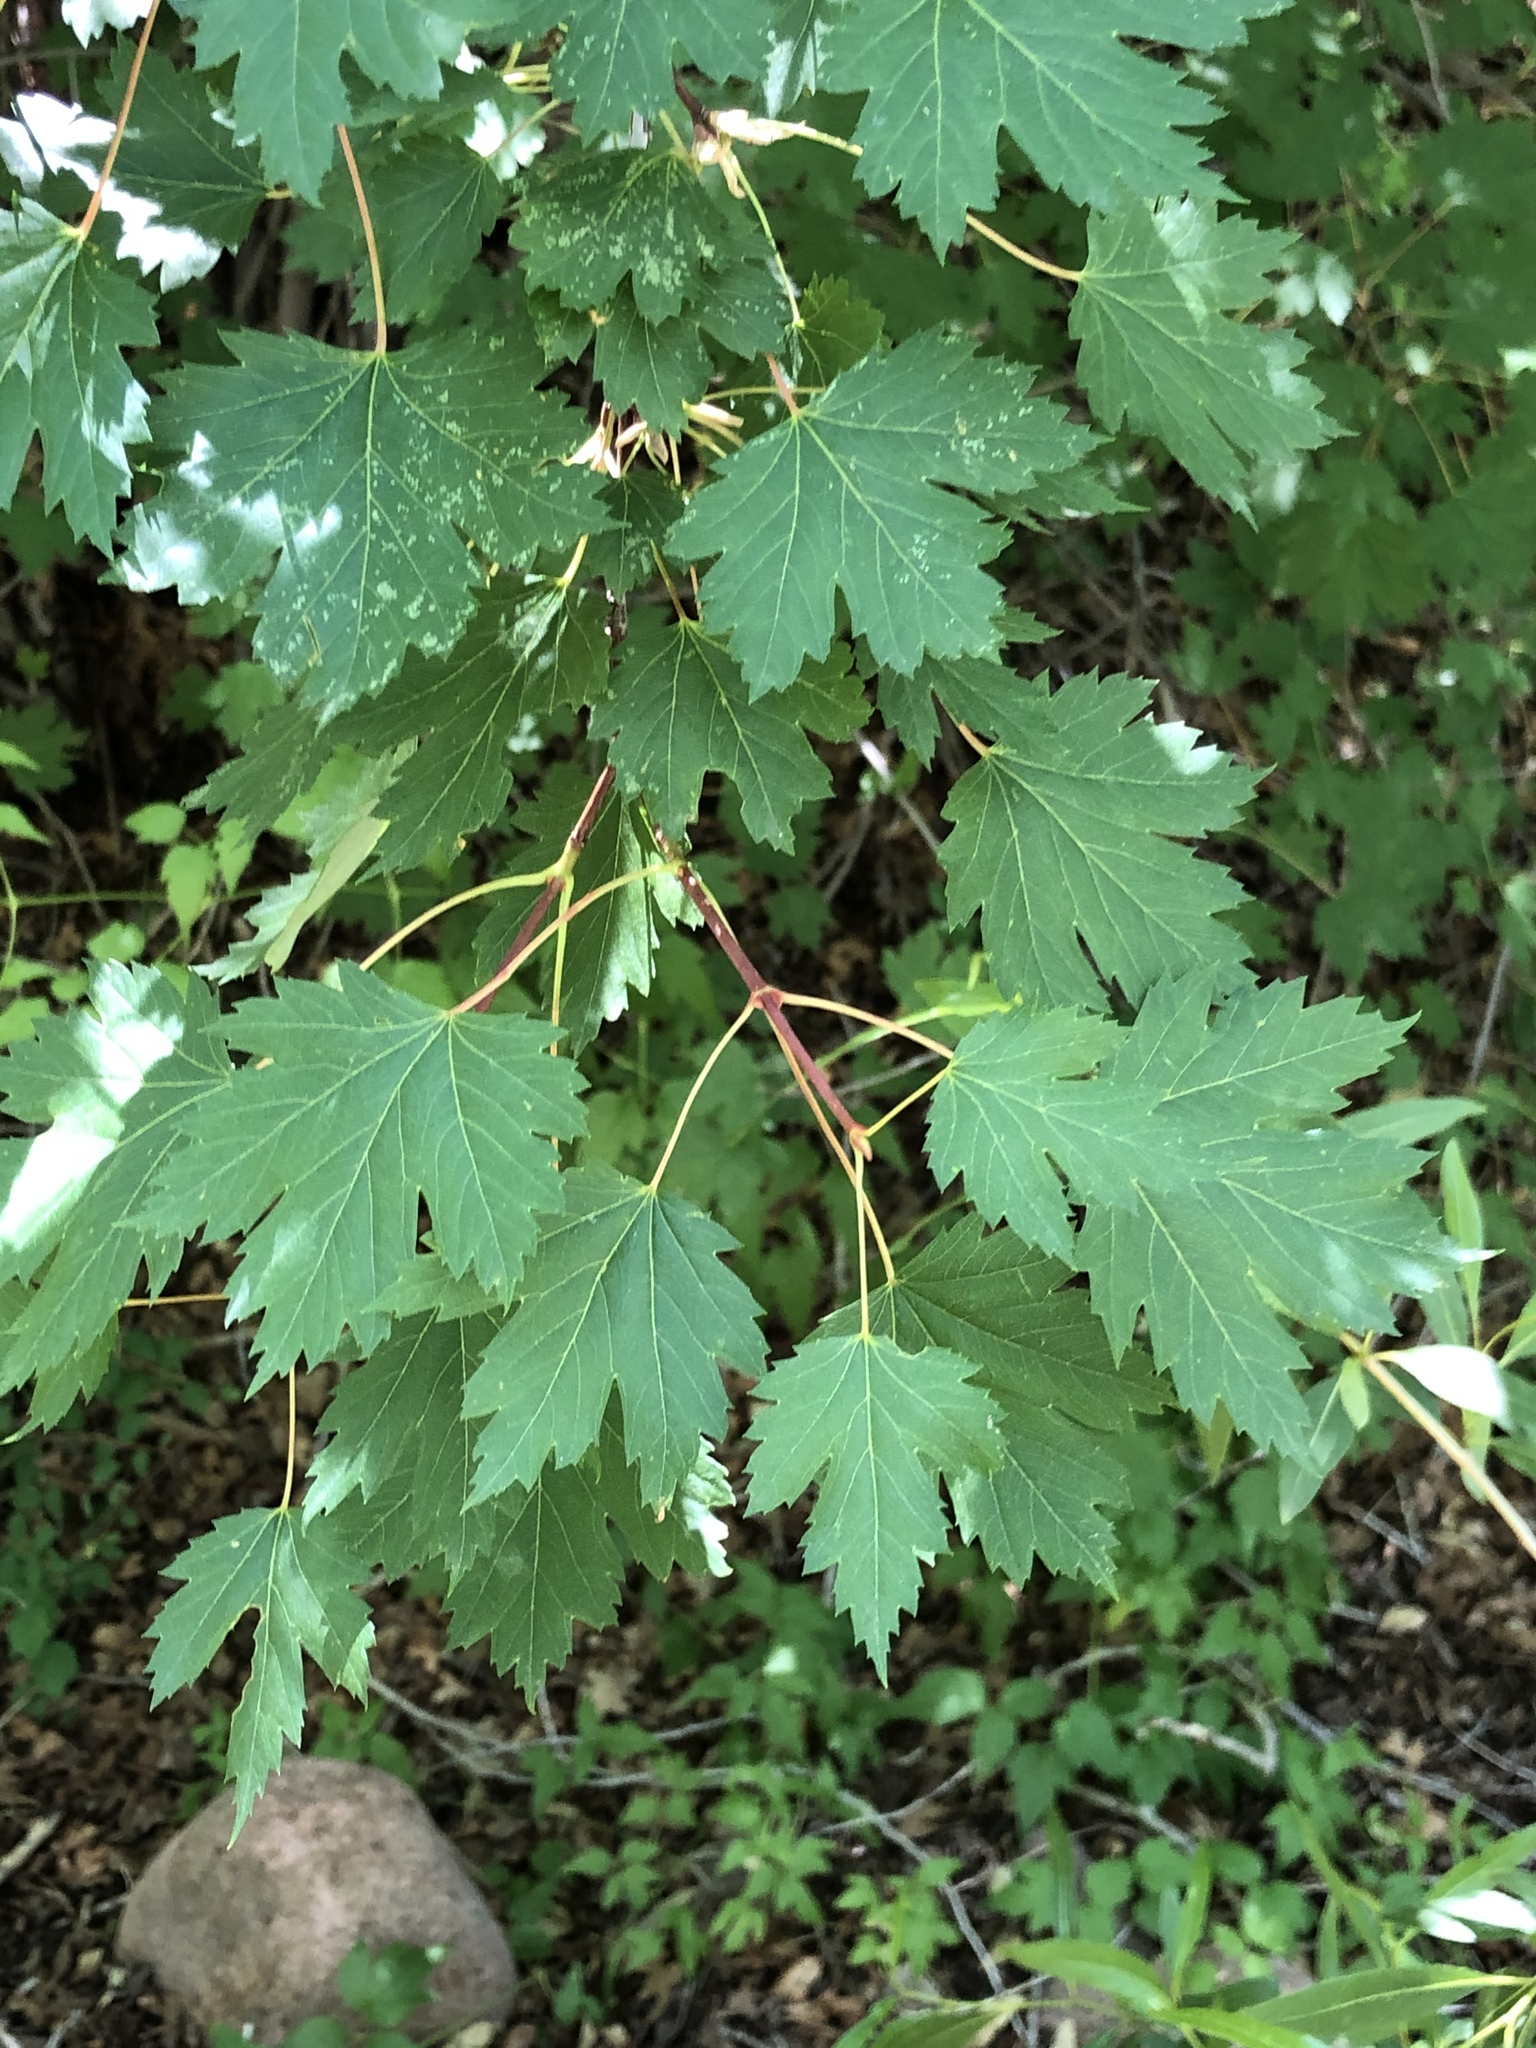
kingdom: Plantae
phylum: Tracheophyta
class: Magnoliopsida
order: Sapindales
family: Sapindaceae
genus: Acer
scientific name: Acer glabrum
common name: Rocky mountain maple
